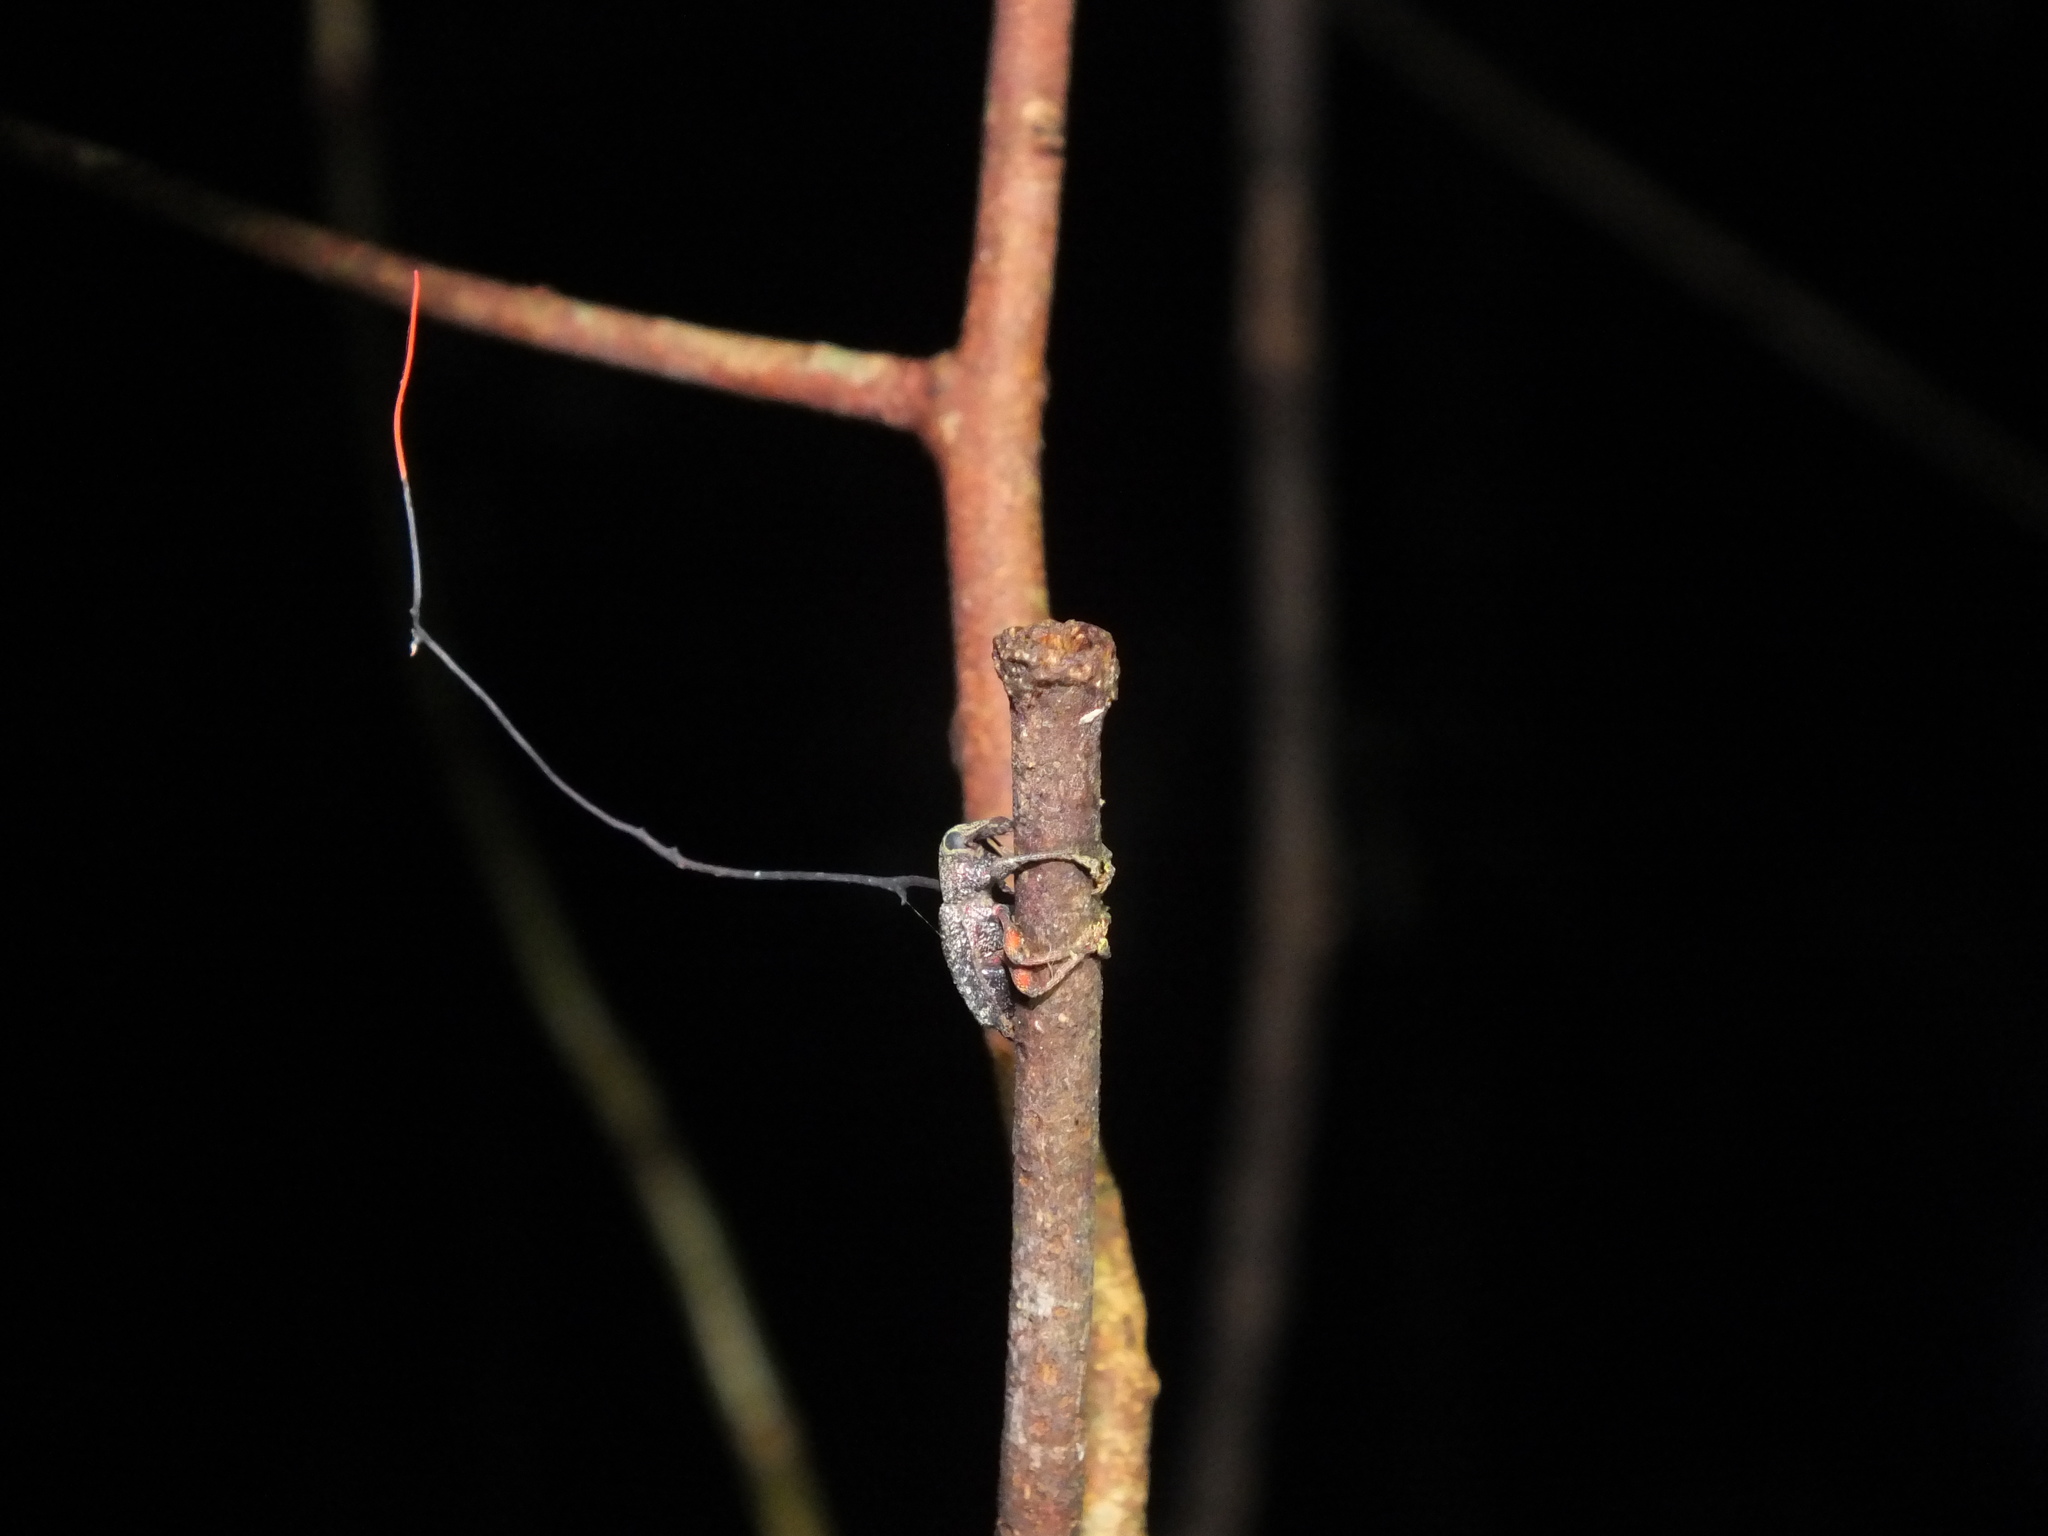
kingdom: Fungi
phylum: Ascomycota
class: Sordariomycetes
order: Hypocreales
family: Ophiocordycipitaceae
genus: Ophiocordyceps
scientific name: Ophiocordyceps curculionum
